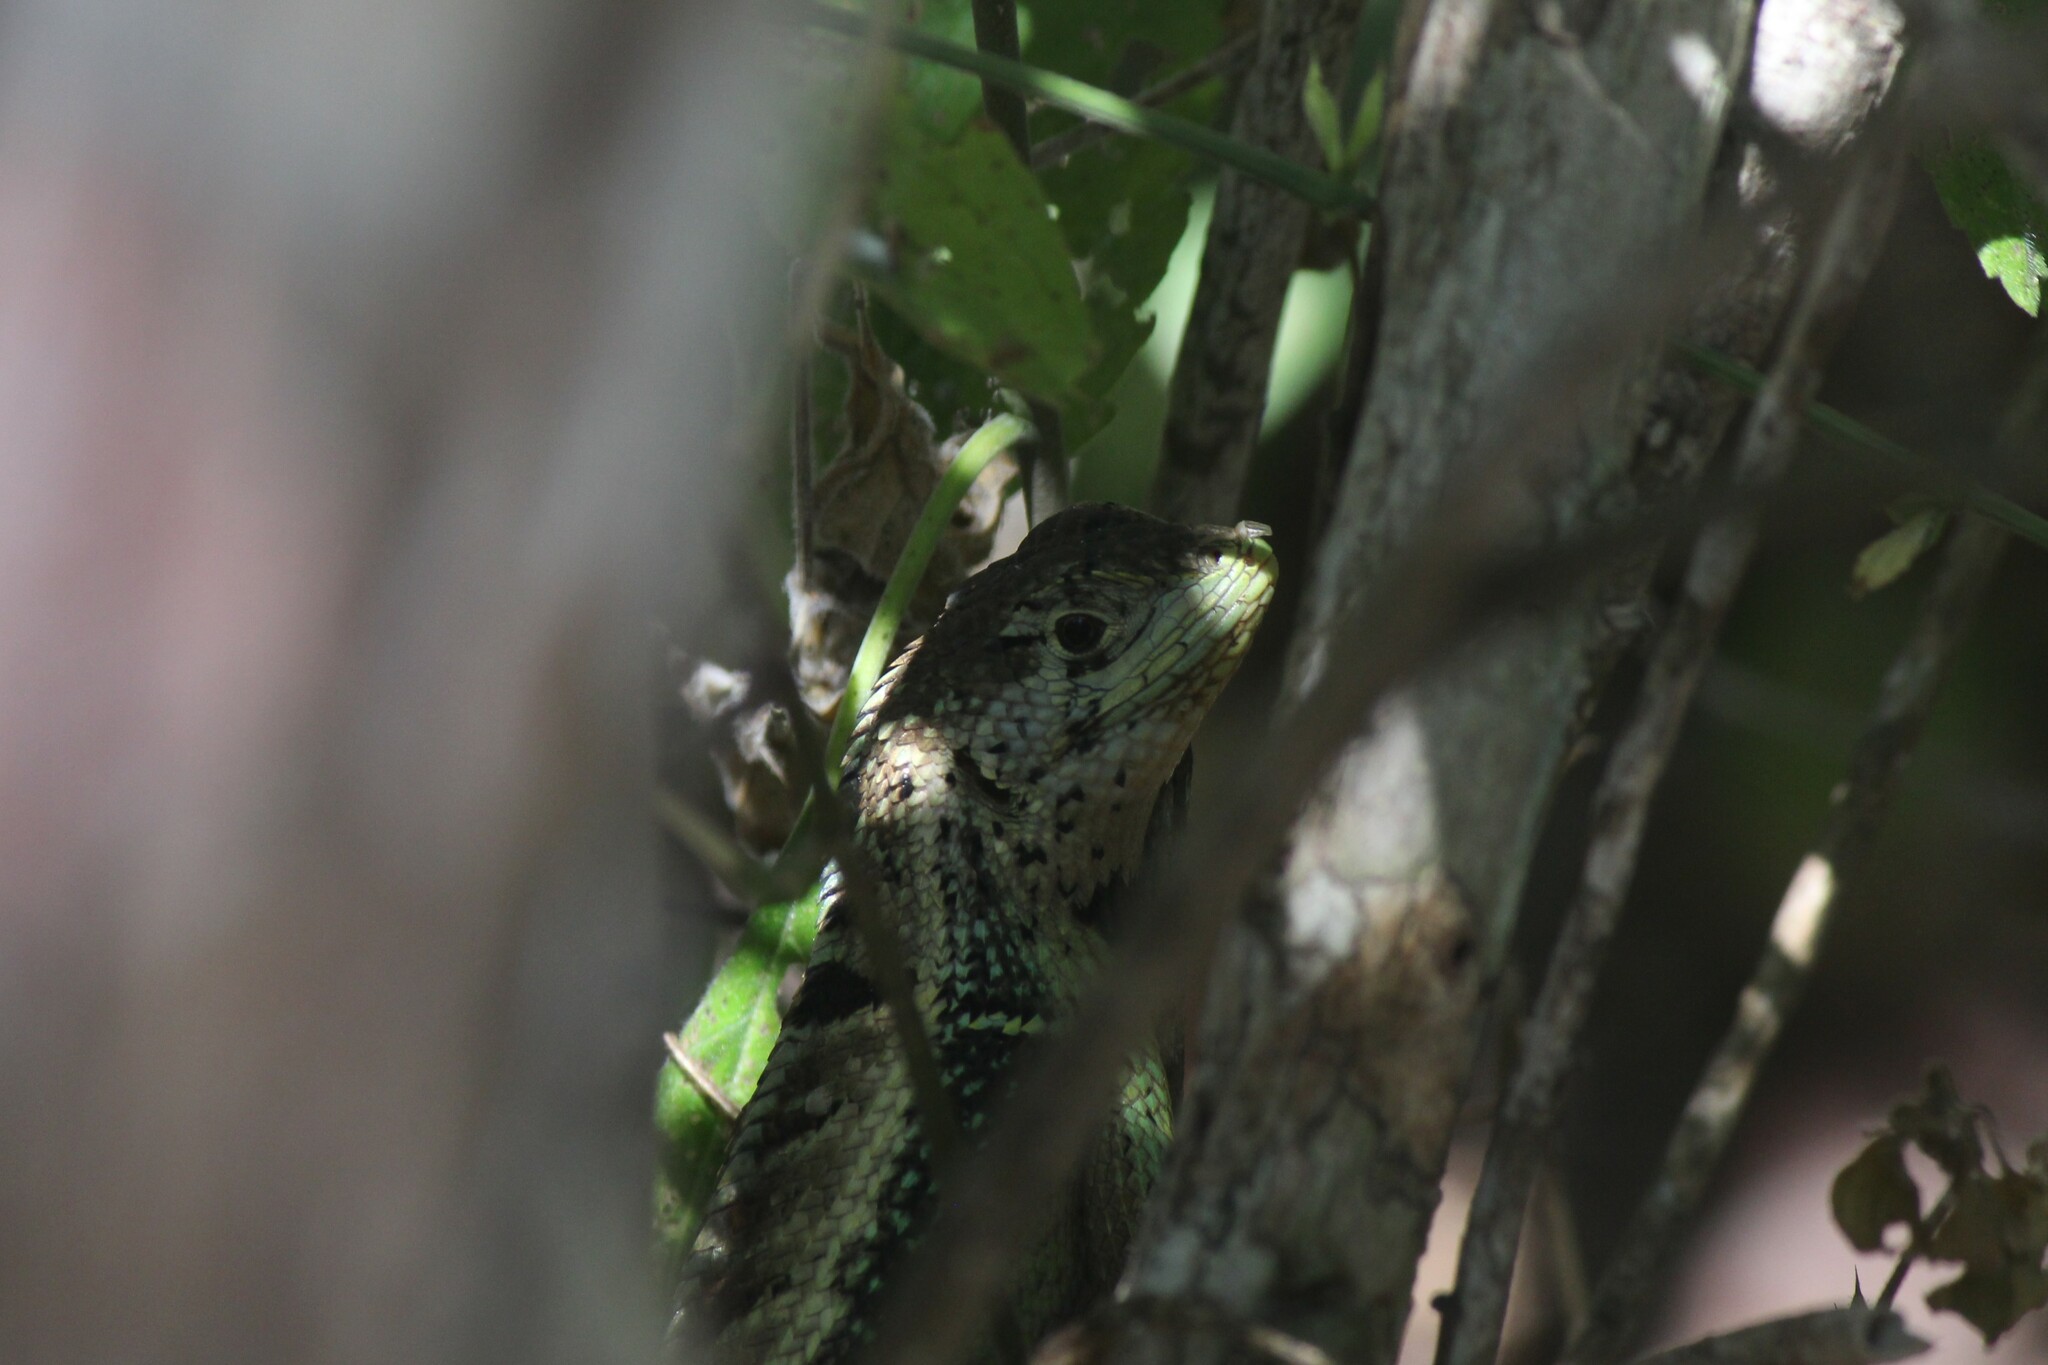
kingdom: Animalia
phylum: Chordata
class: Squamata
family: Tropiduridae
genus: Stenocercus
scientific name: Stenocercus iridescens
